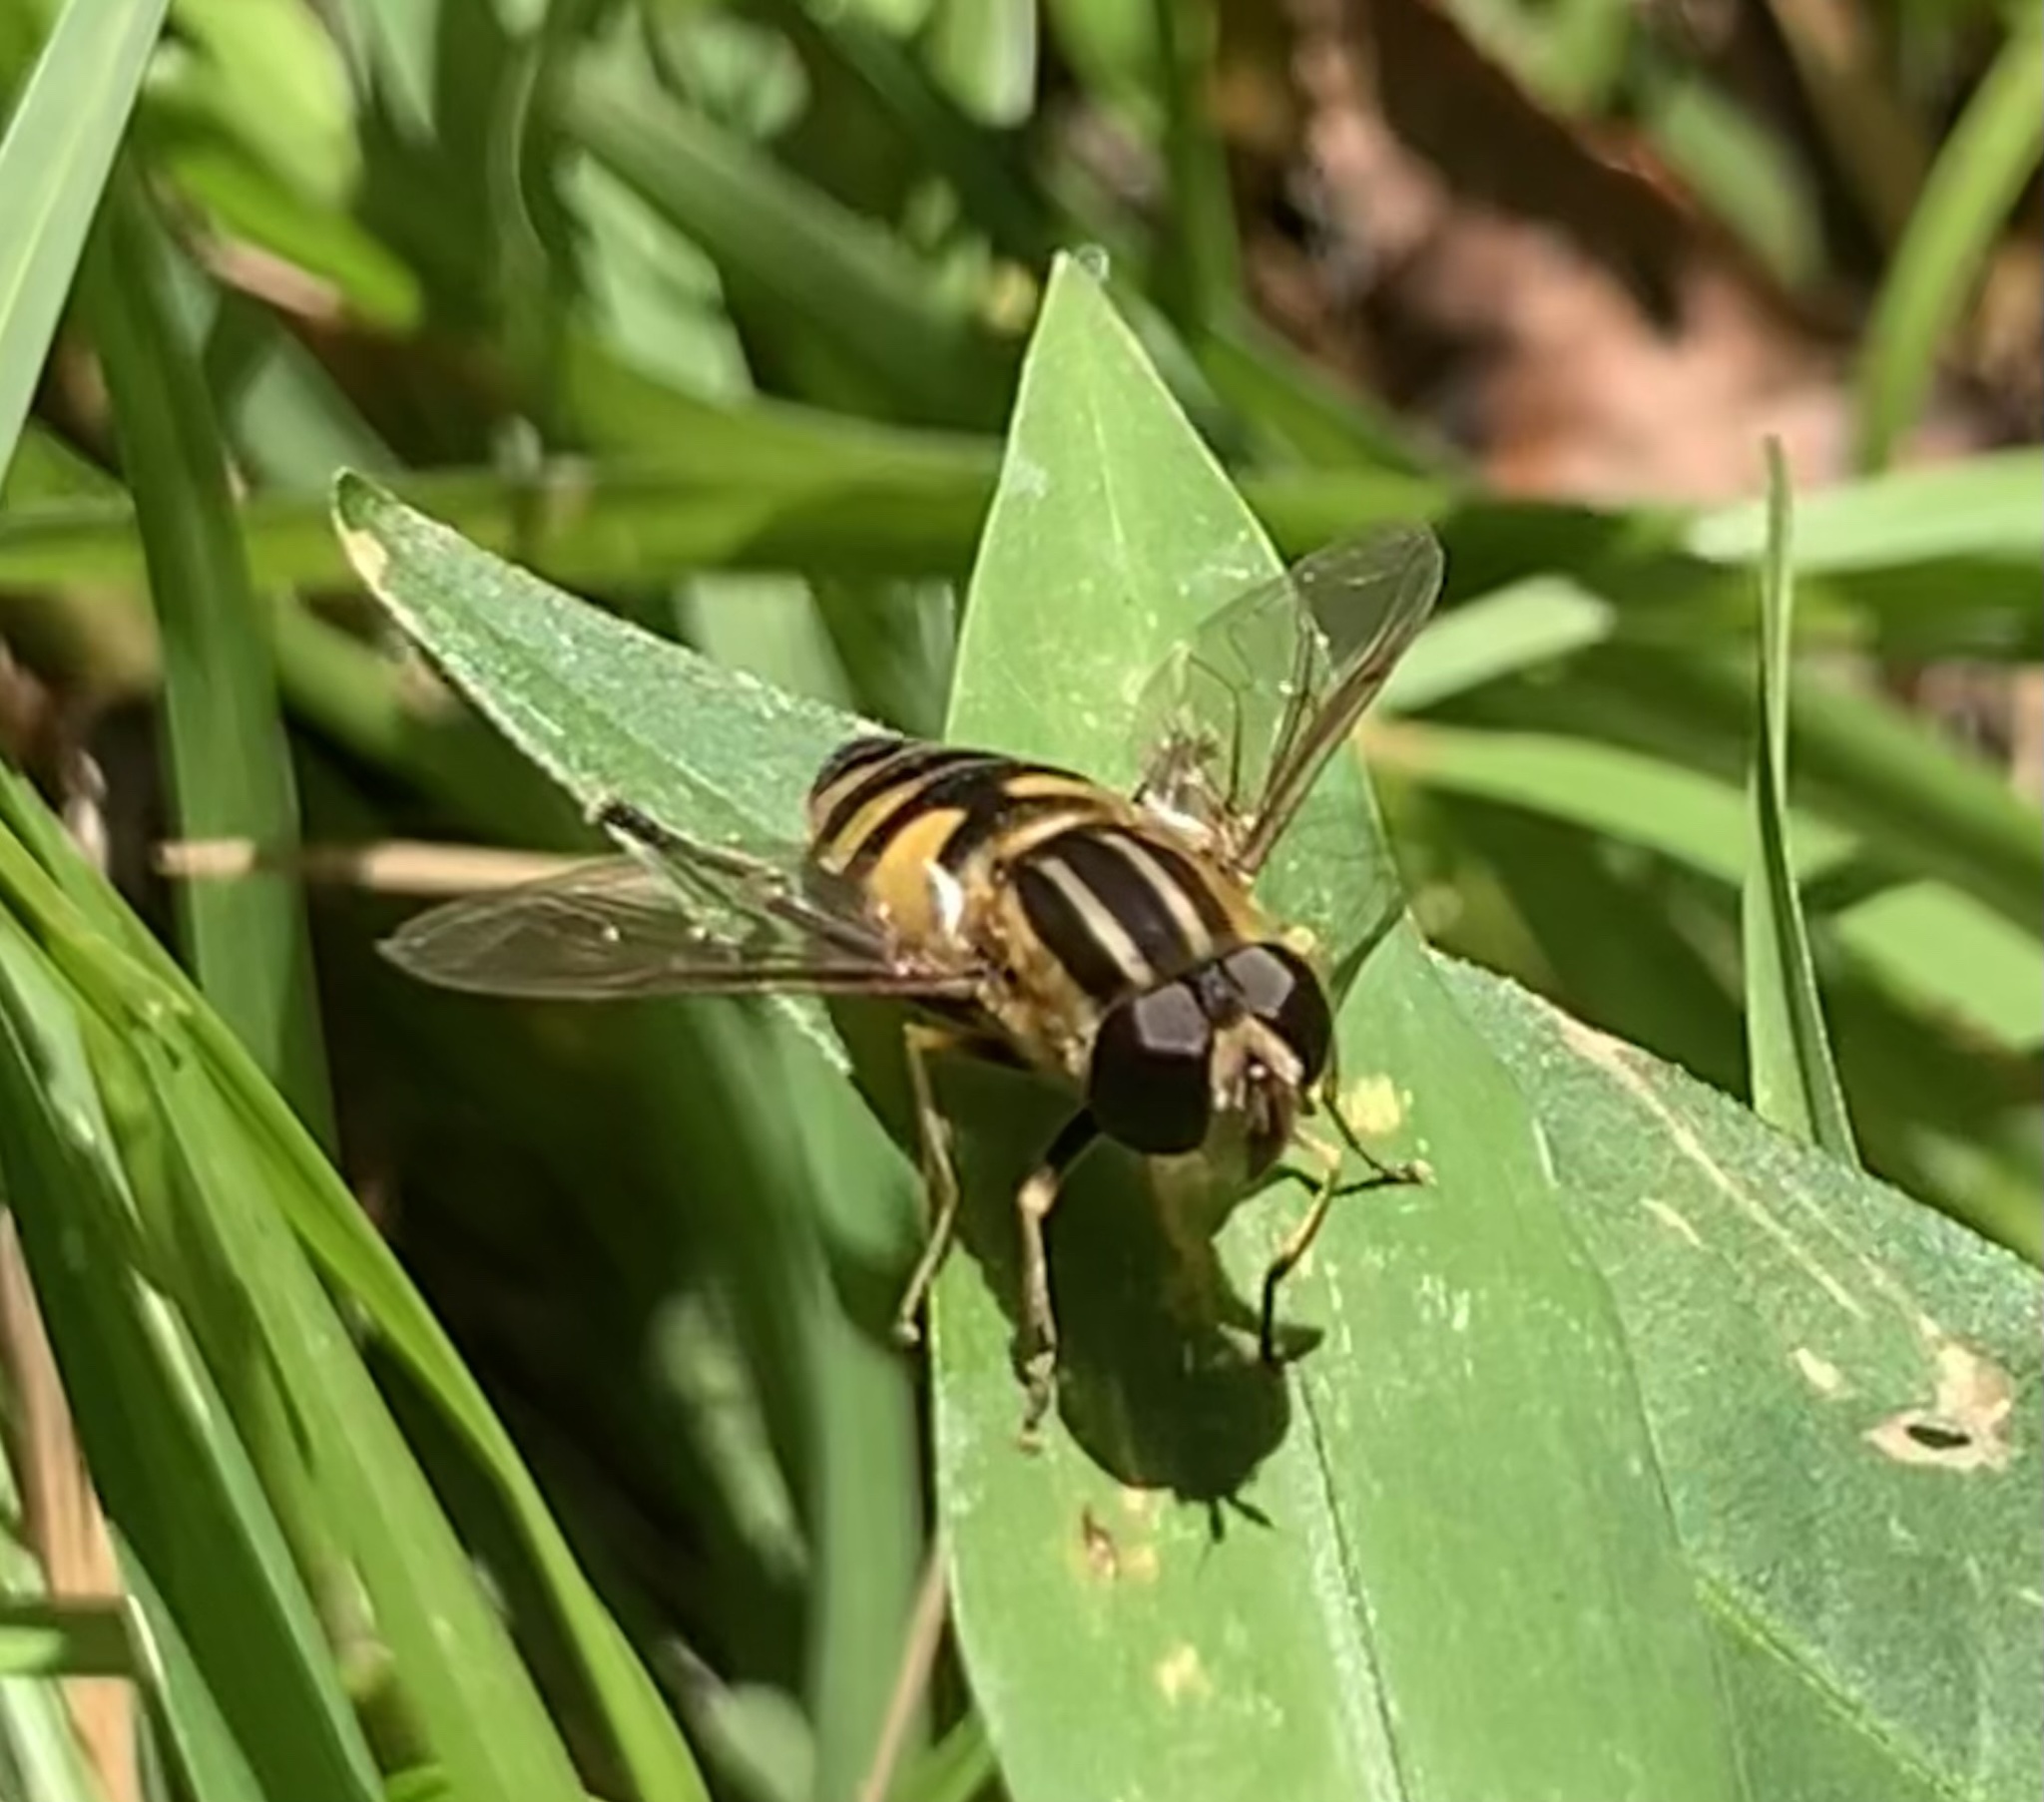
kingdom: Animalia
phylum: Arthropoda
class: Insecta
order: Diptera
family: Syrphidae
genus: Helophilus
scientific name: Helophilus fasciatus
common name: Narrow-headed marsh fly
